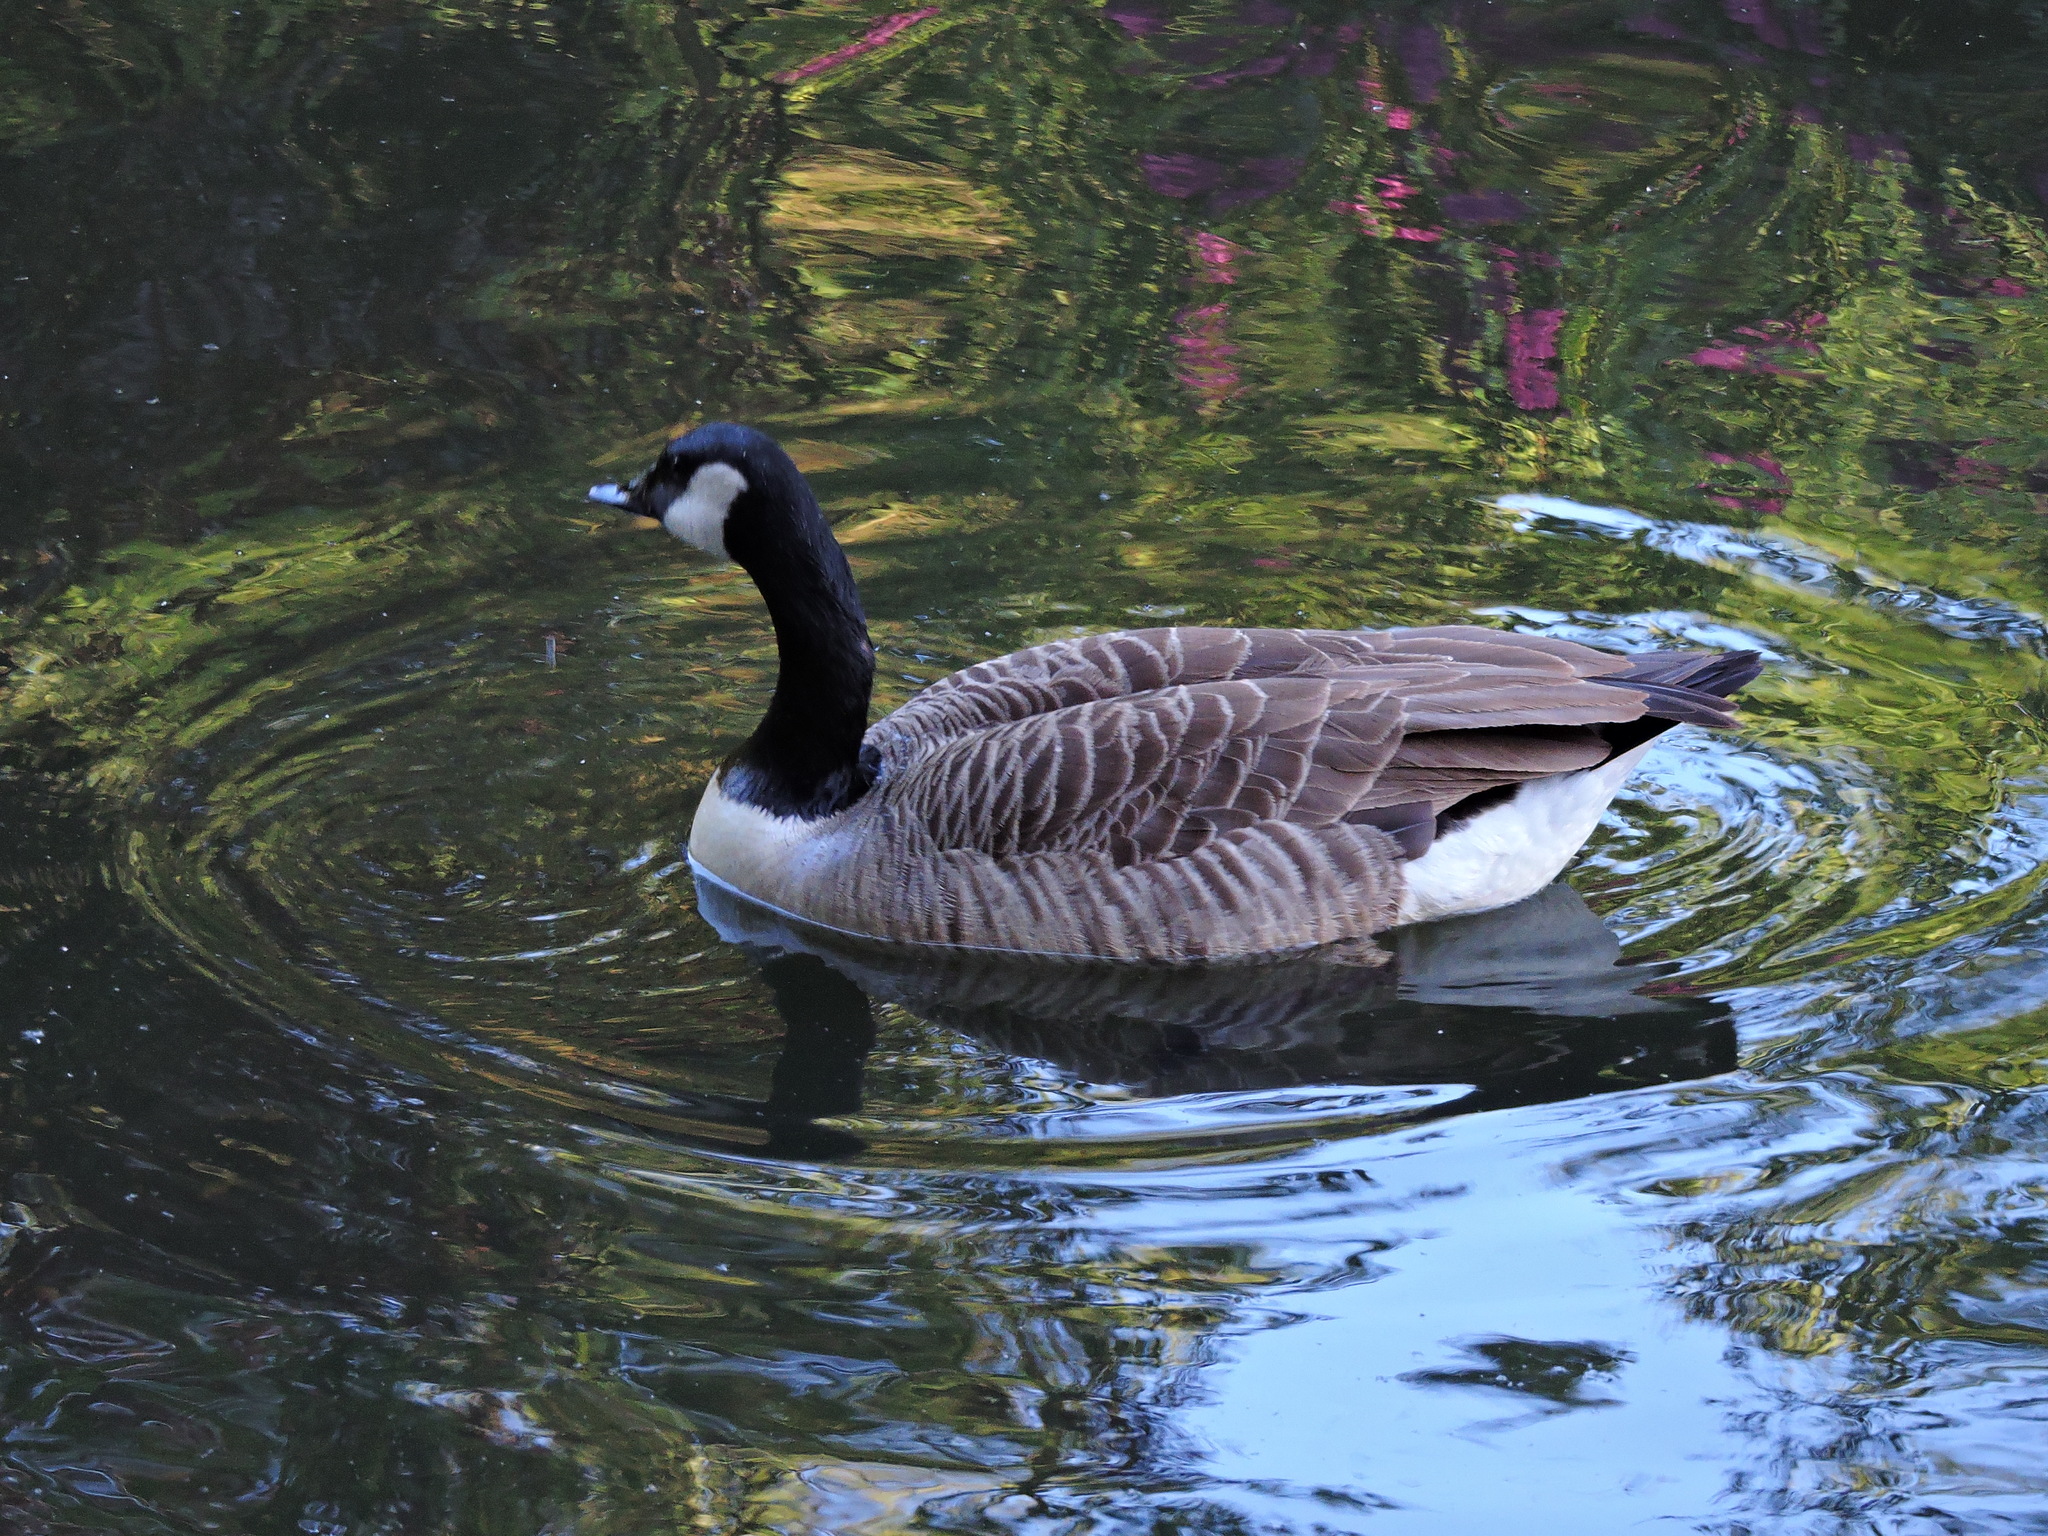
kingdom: Animalia
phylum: Chordata
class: Aves
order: Anseriformes
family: Anatidae
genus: Branta
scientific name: Branta canadensis
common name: Canada goose
